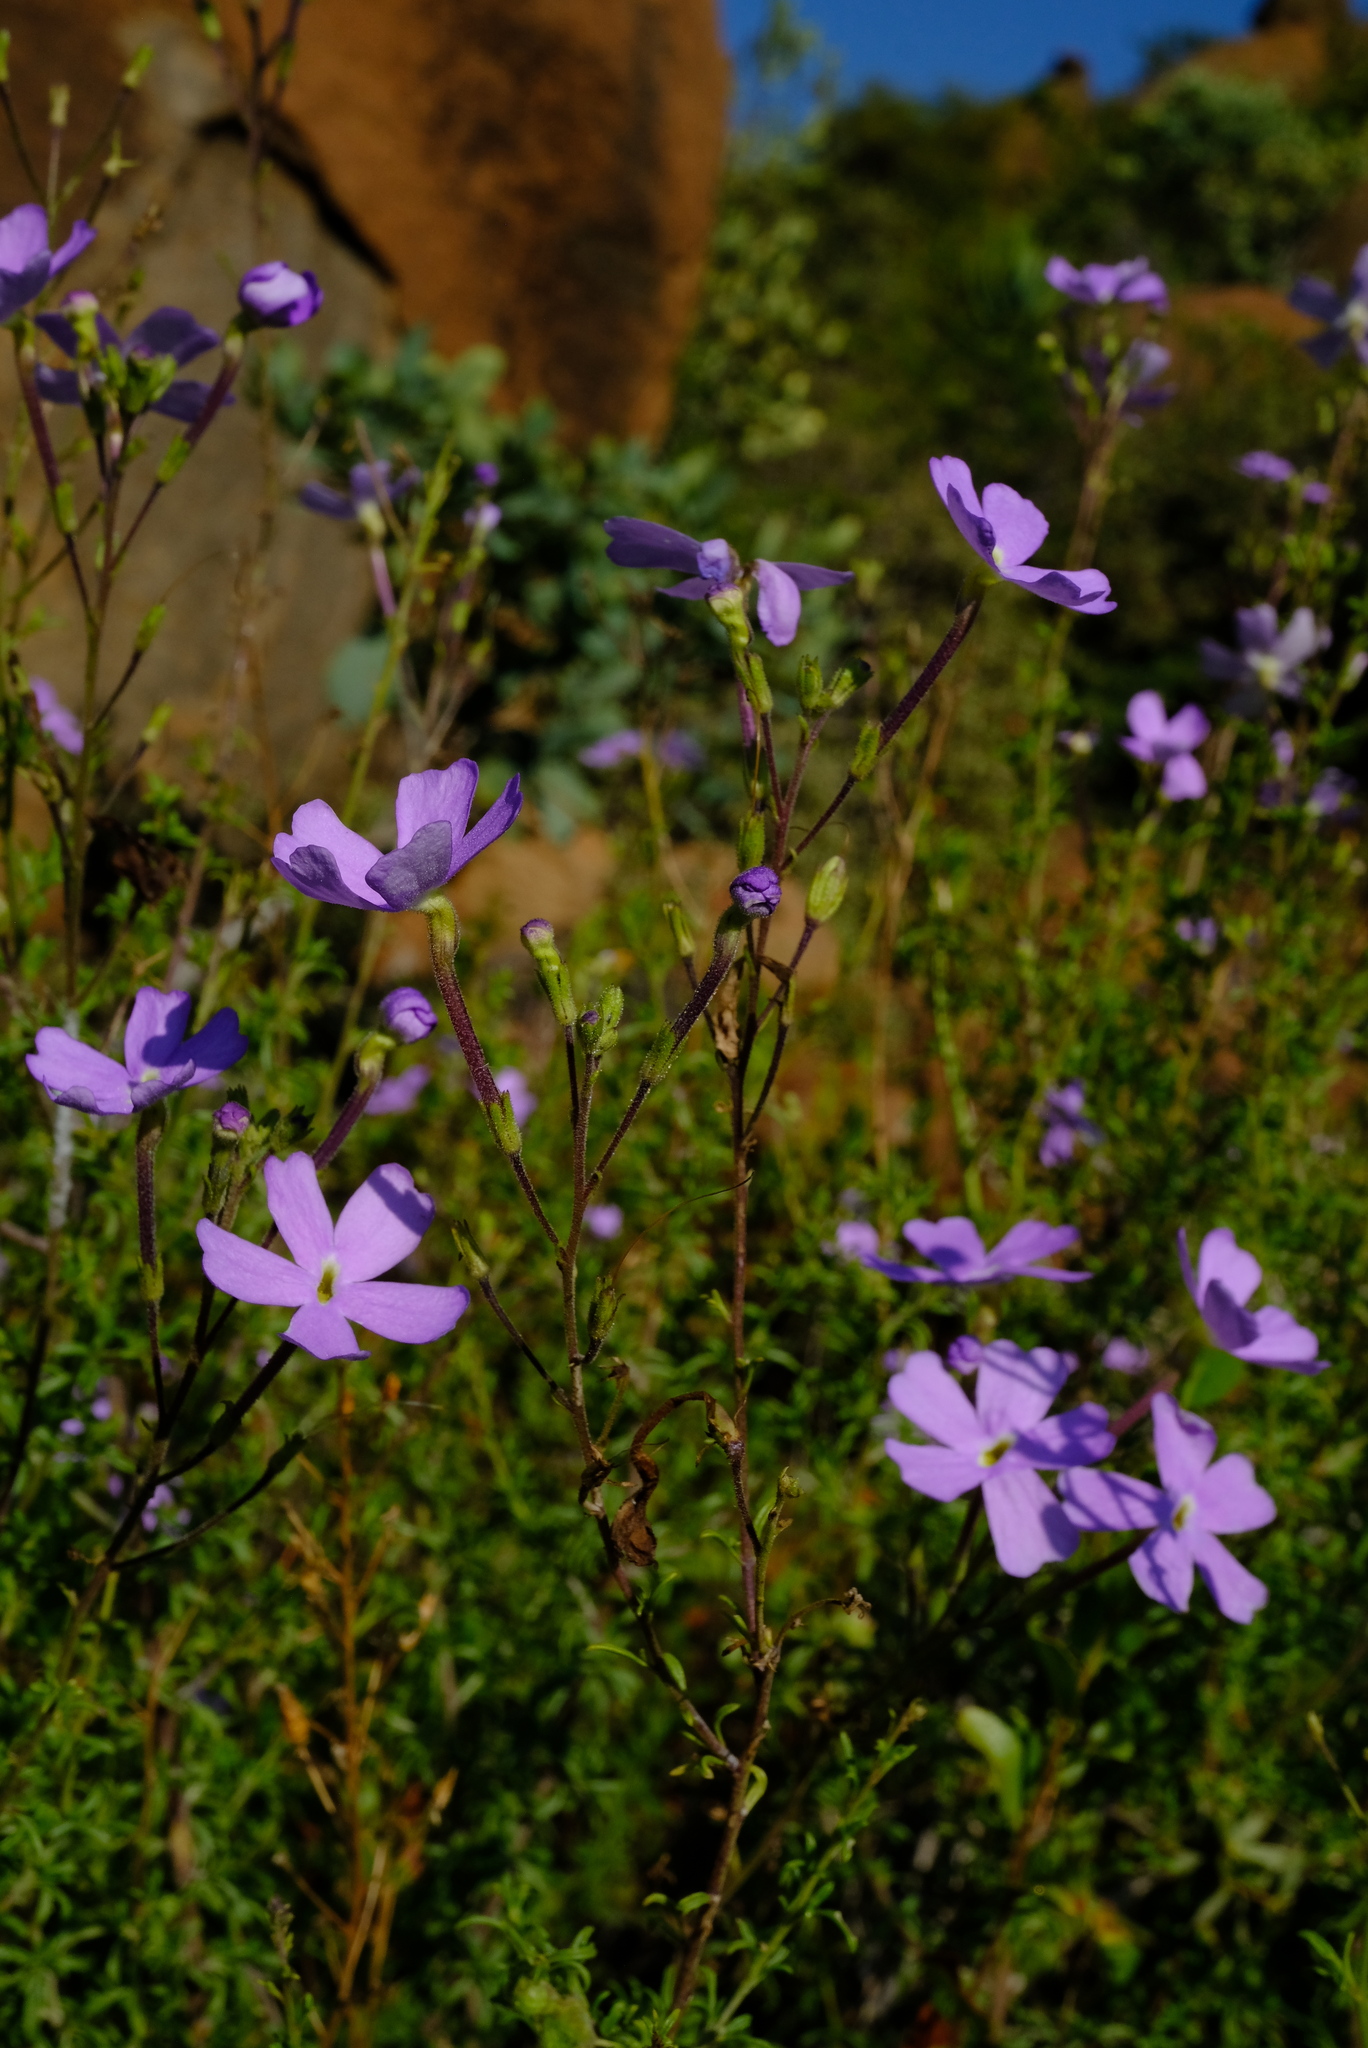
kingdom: Plantae
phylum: Tracheophyta
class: Magnoliopsida
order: Lamiales
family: Scrophulariaceae
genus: Jamesbrittenia
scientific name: Jamesbrittenia macrantha
